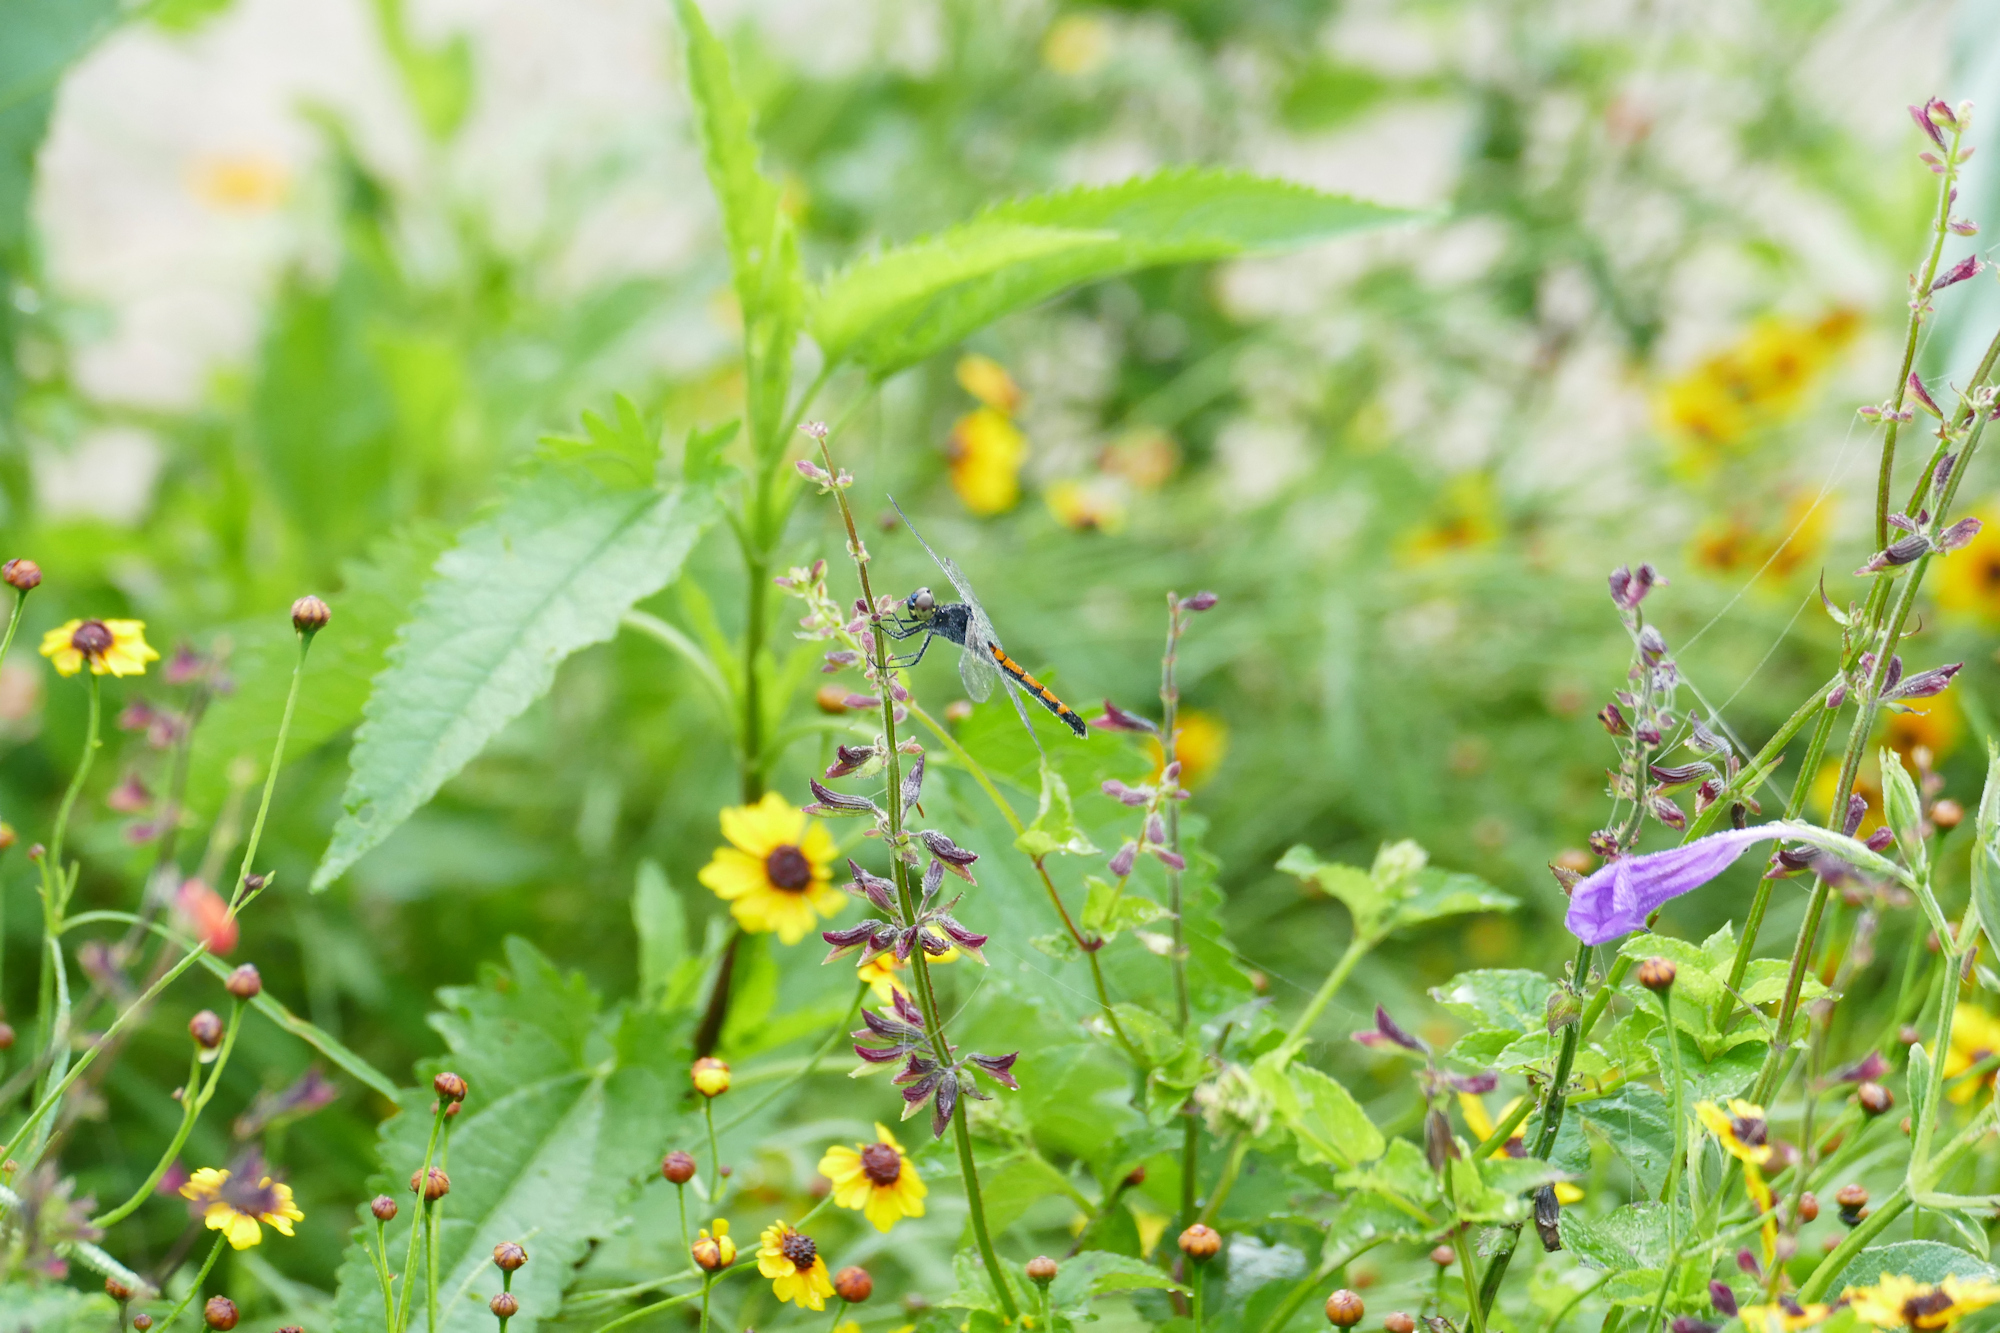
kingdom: Animalia
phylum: Arthropoda
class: Insecta
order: Odonata
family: Libellulidae
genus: Erythrodiplax
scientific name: Erythrodiplax berenice
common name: Seaside dragonlet
